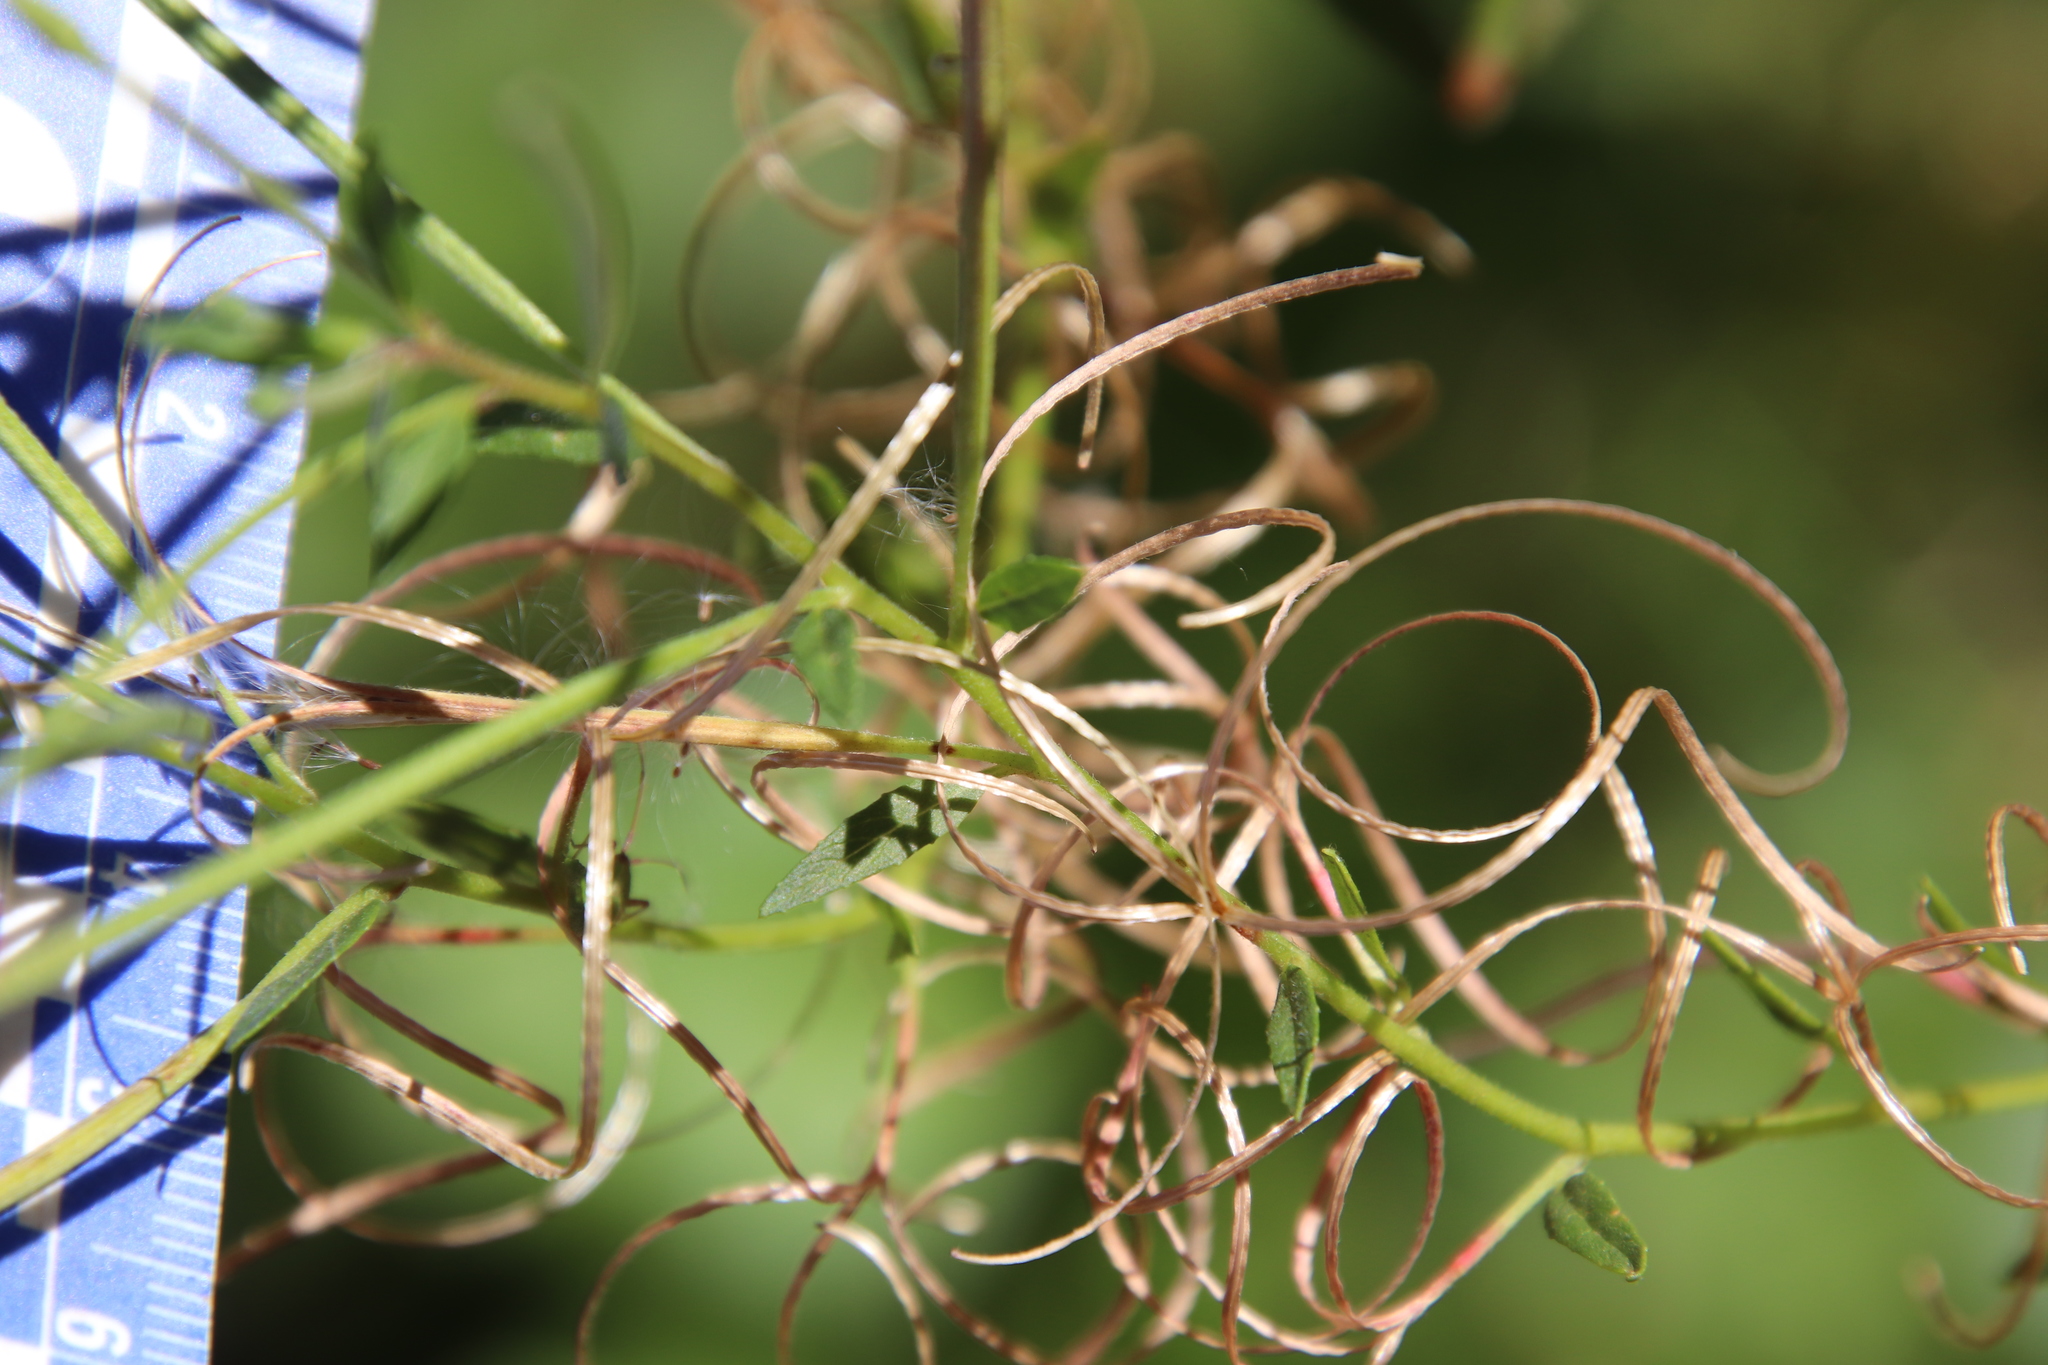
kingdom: Plantae
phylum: Tracheophyta
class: Magnoliopsida
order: Myrtales
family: Onagraceae
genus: Epilobium
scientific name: Epilobium ciliatum
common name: American willowherb
